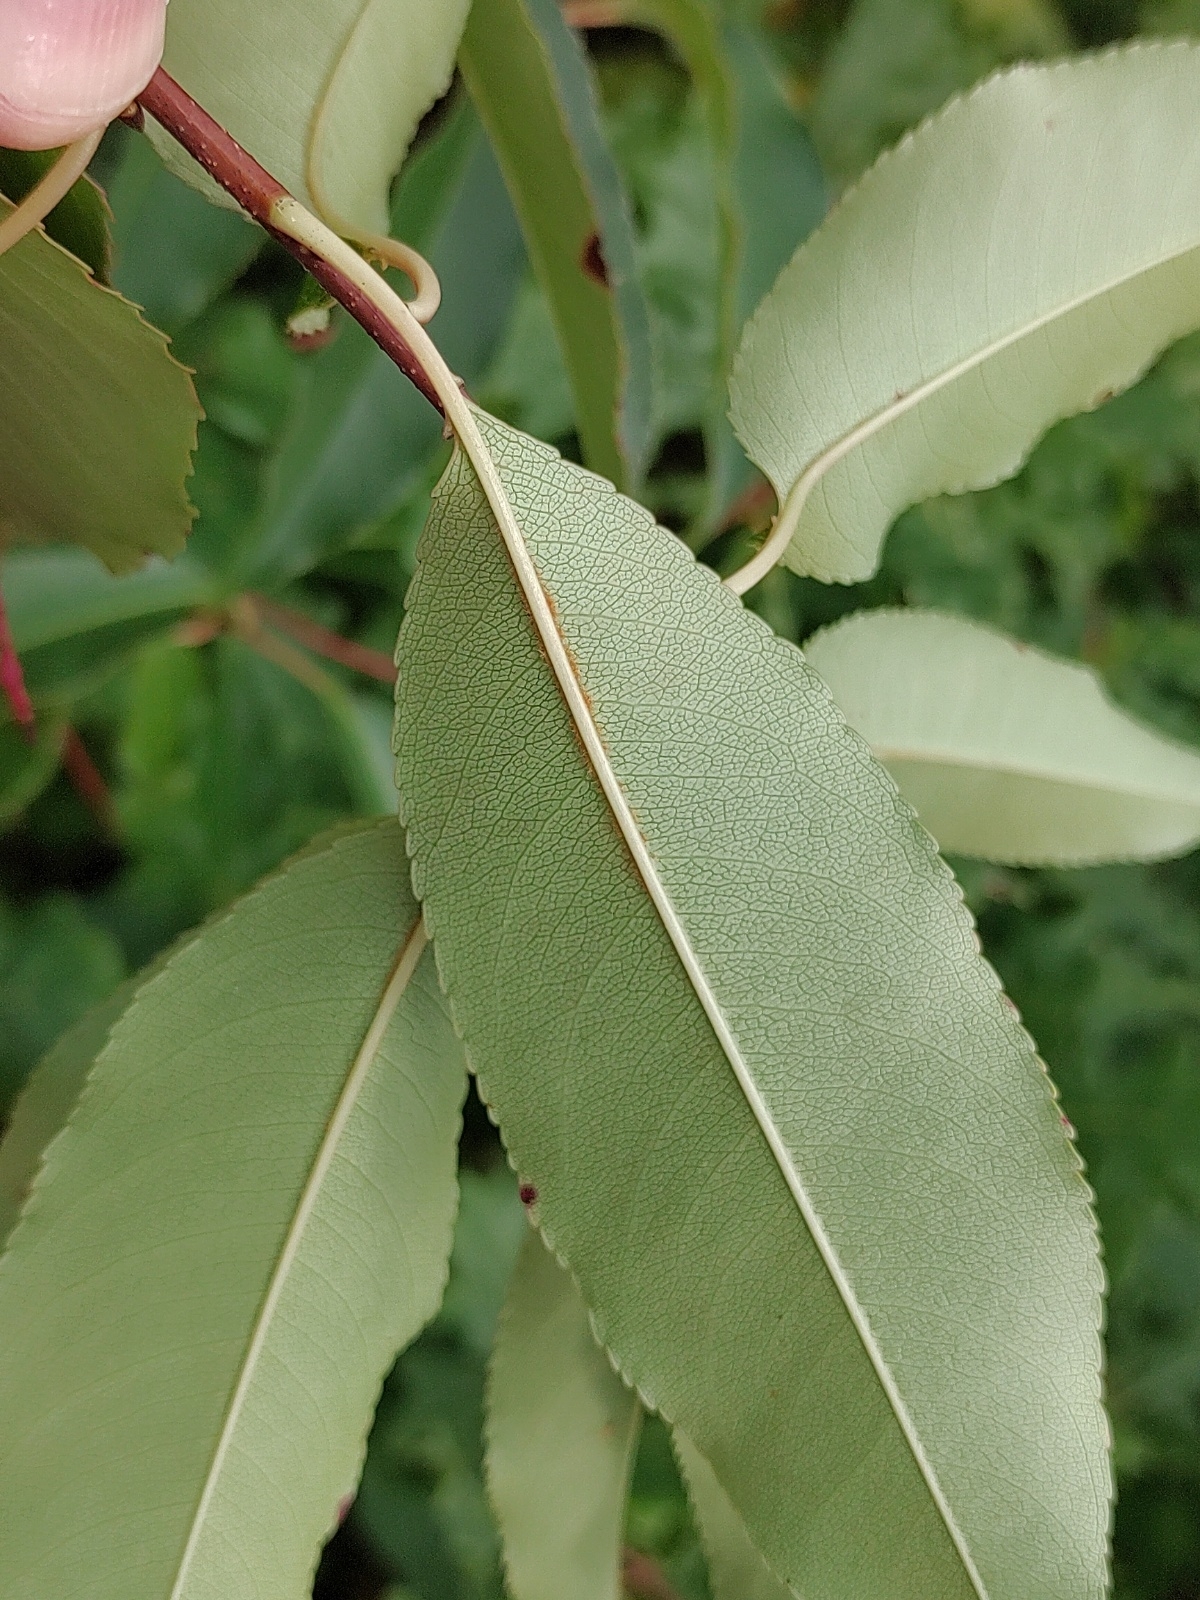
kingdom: Plantae
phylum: Tracheophyta
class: Magnoliopsida
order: Rosales
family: Rosaceae
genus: Prunus
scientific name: Prunus serotina
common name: Black cherry
